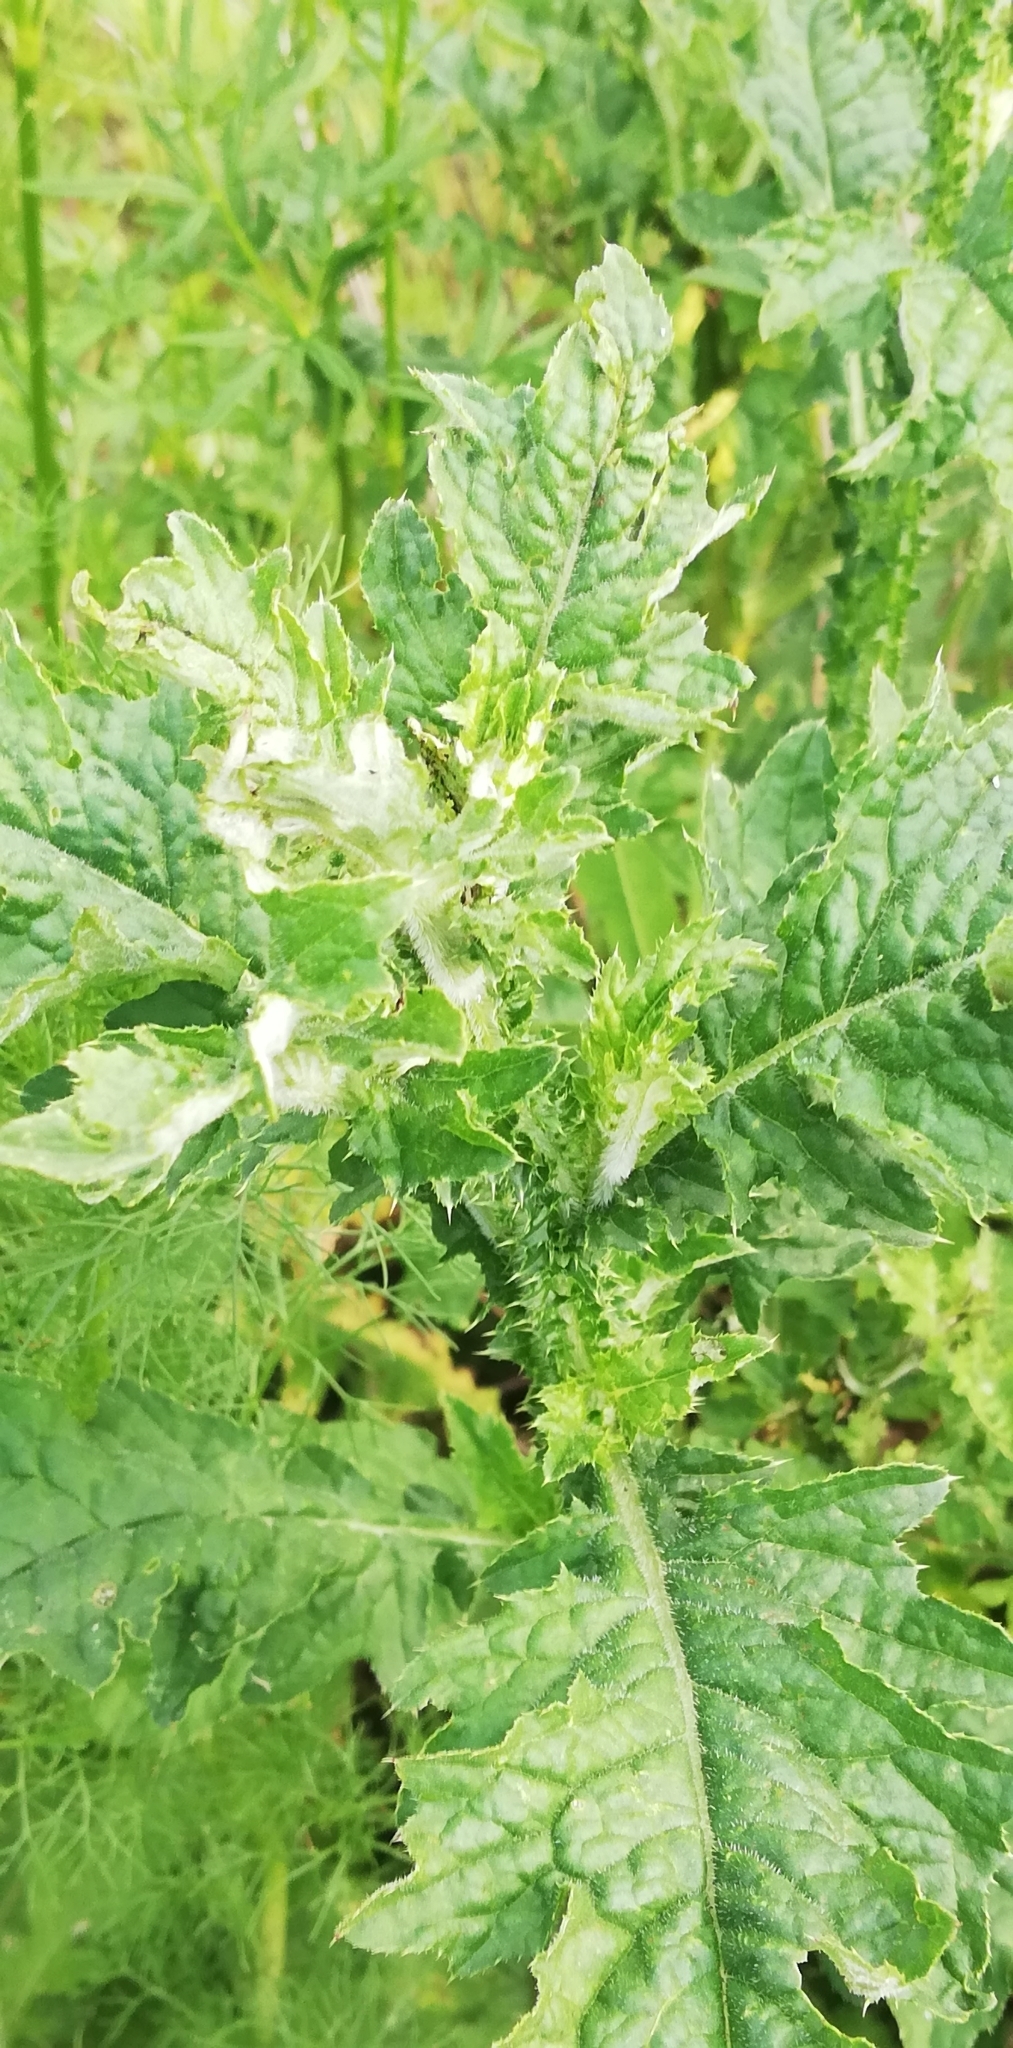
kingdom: Plantae
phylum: Tracheophyta
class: Magnoliopsida
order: Asterales
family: Asteraceae
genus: Carduus
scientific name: Carduus crispus
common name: Welted thistle
